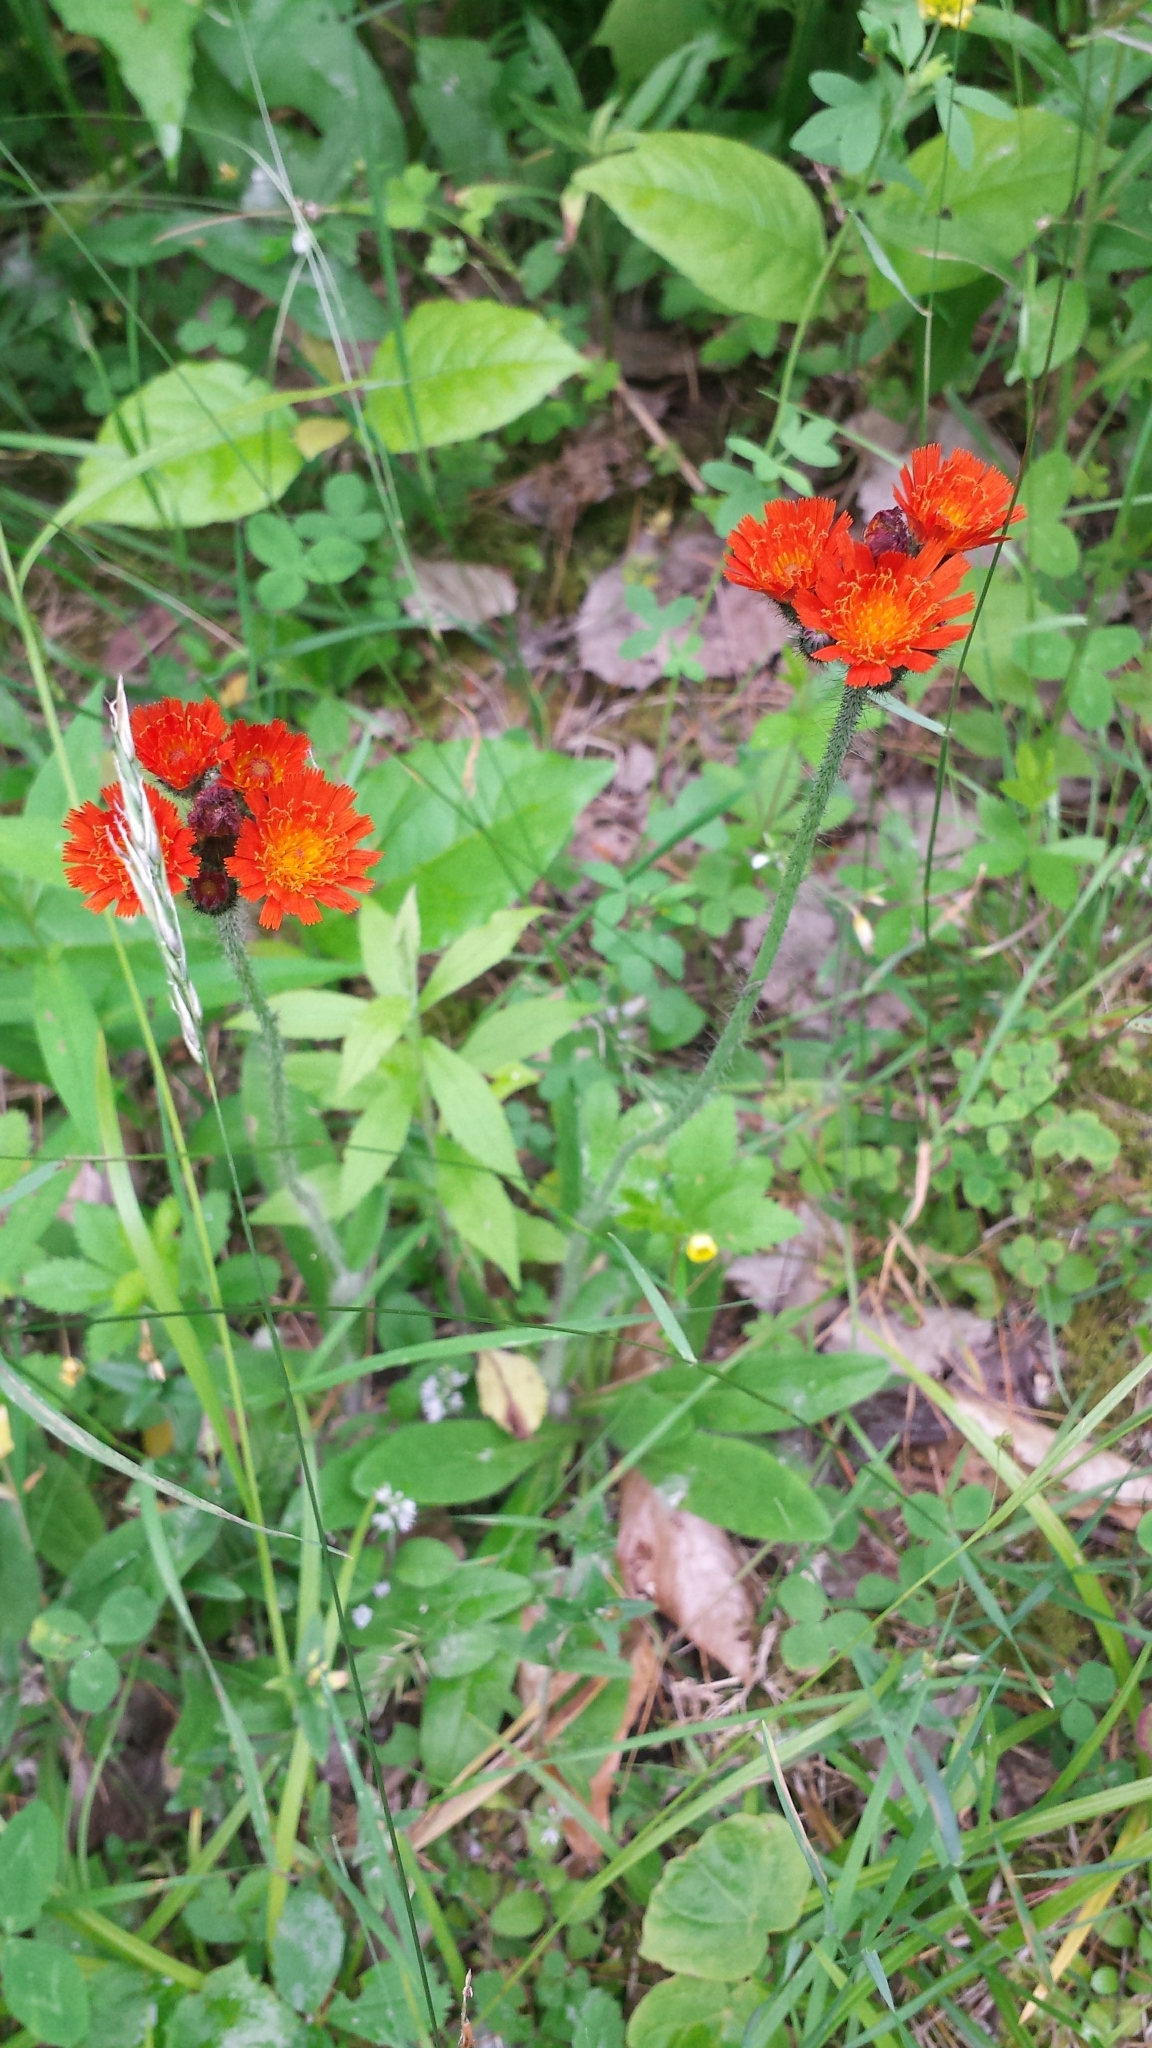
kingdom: Plantae
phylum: Tracheophyta
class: Magnoliopsida
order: Asterales
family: Asteraceae
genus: Pilosella
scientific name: Pilosella aurantiaca
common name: Fox-and-cubs
